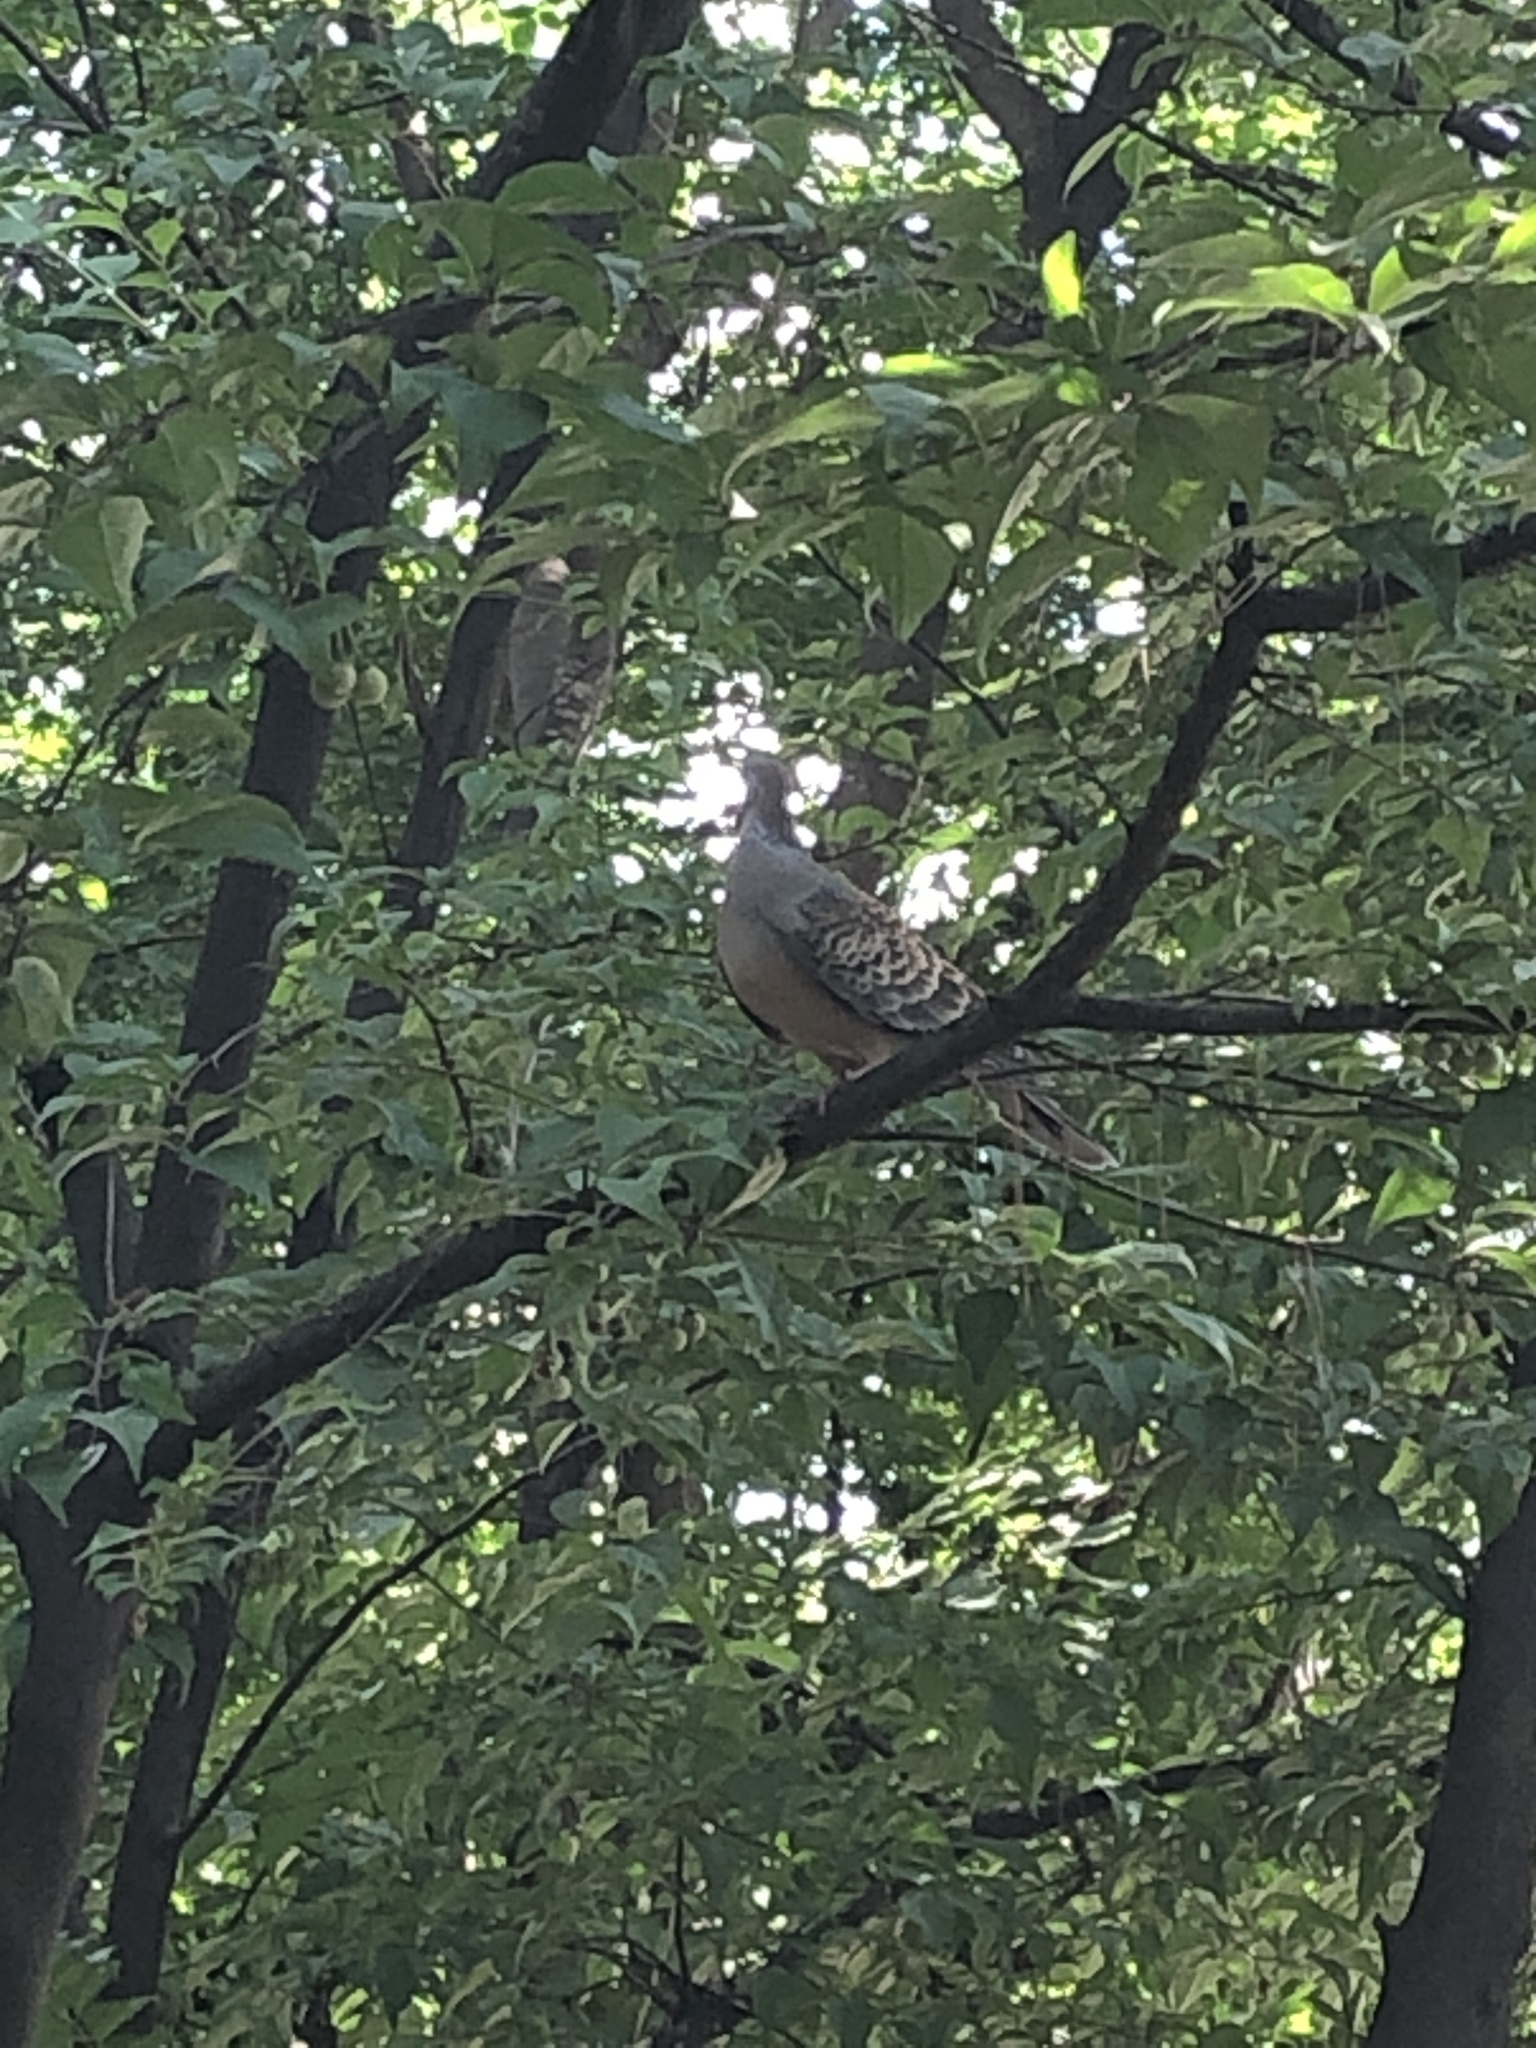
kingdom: Animalia
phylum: Chordata
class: Aves
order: Columbiformes
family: Columbidae
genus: Streptopelia
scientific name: Streptopelia orientalis
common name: Oriental turtle dove
